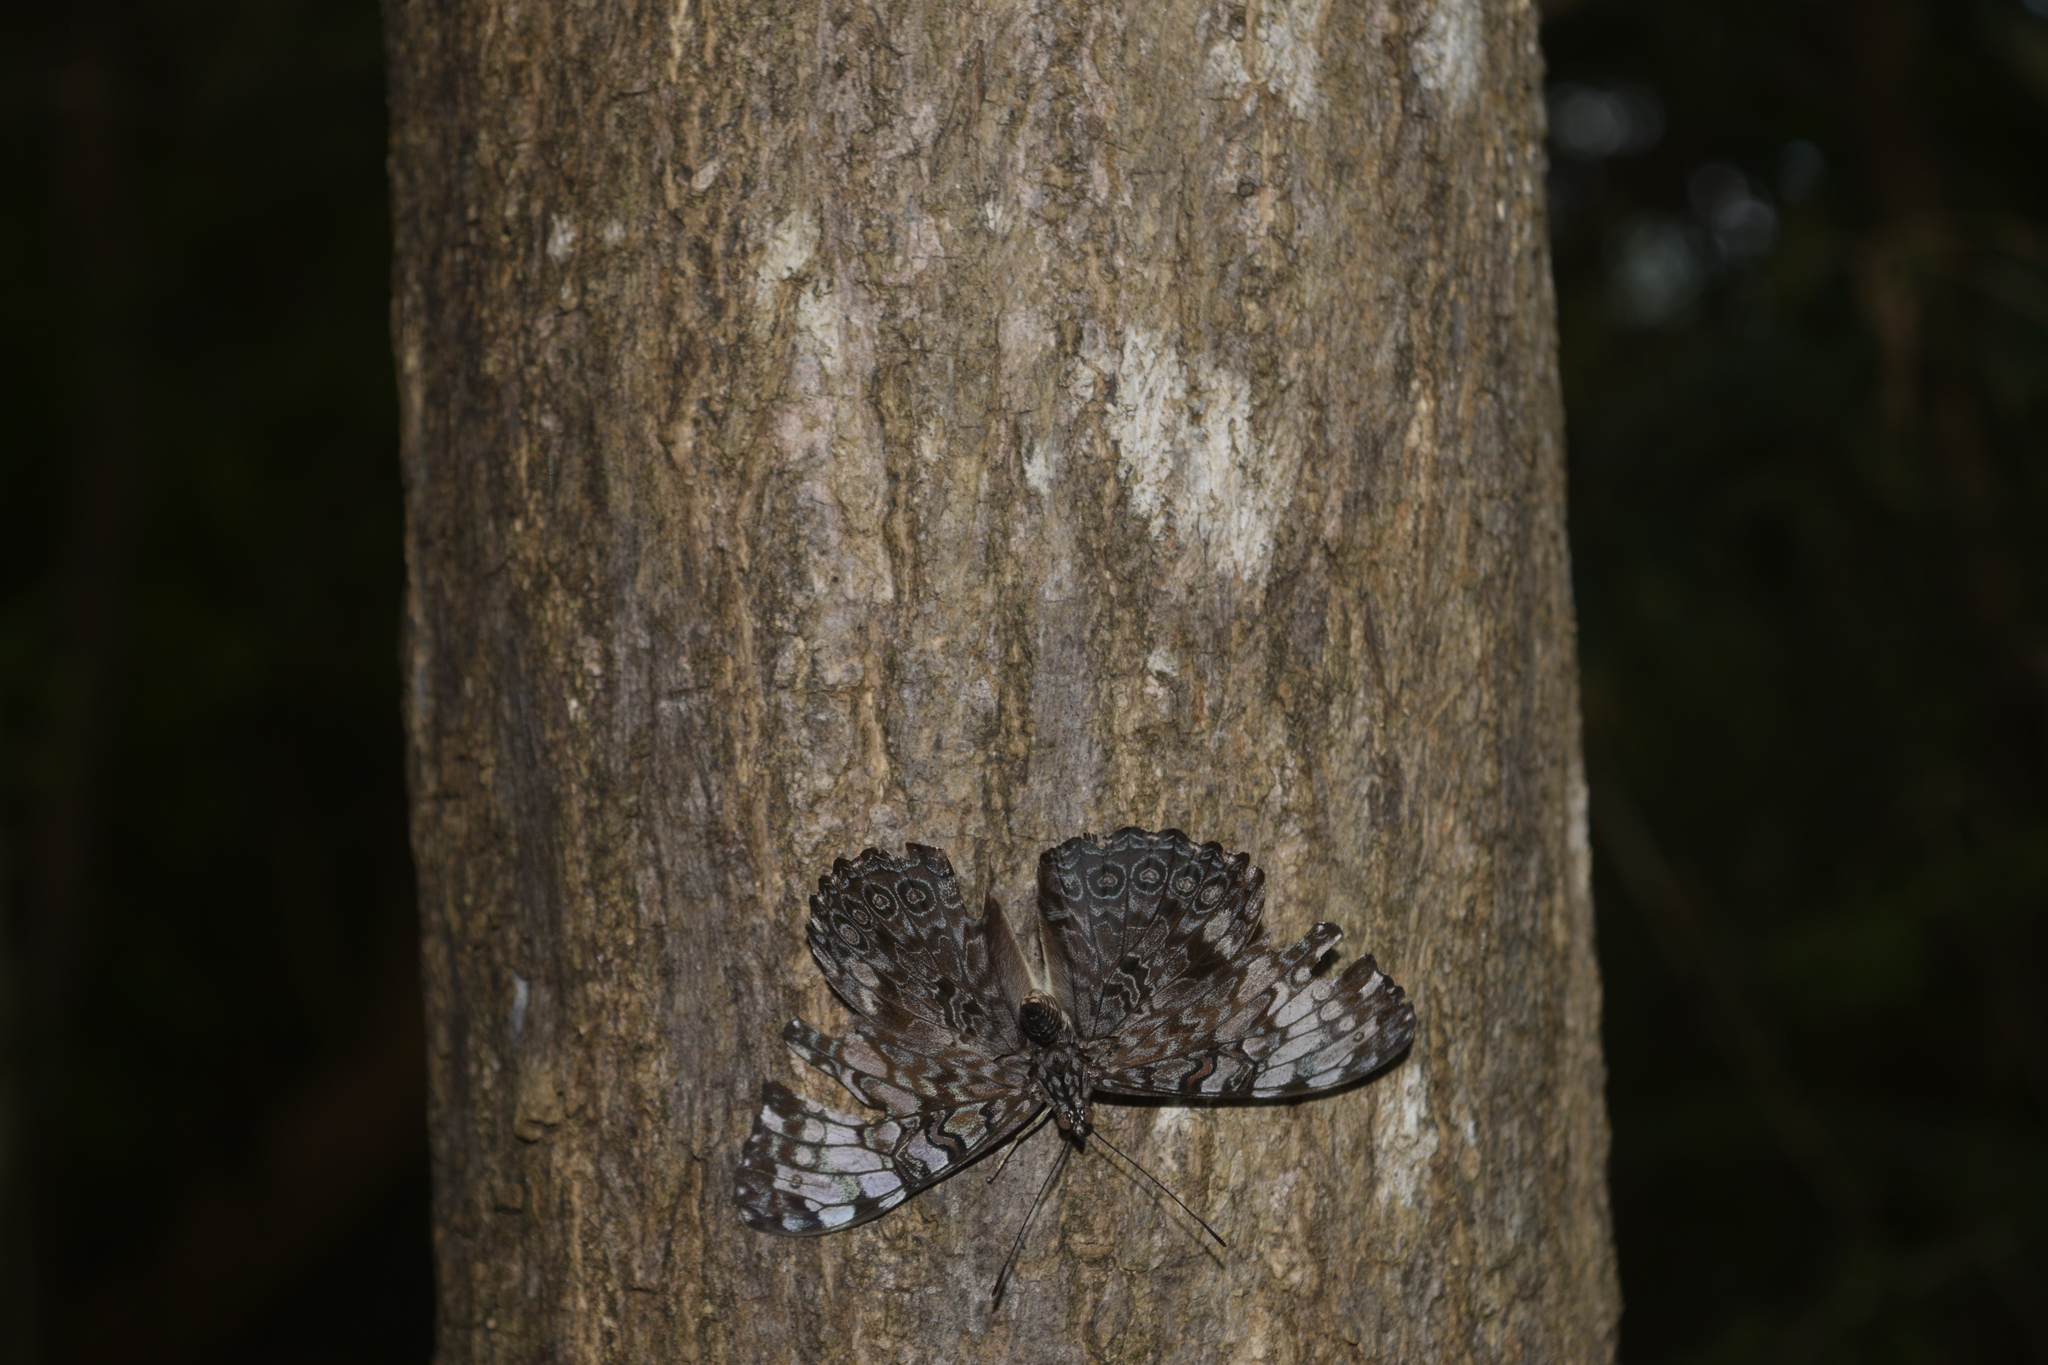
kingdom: Animalia
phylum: Arthropoda
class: Insecta
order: Lepidoptera
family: Nymphalidae
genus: Hamadryas
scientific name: Hamadryas guatemalena
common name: Guatemalan cracker
